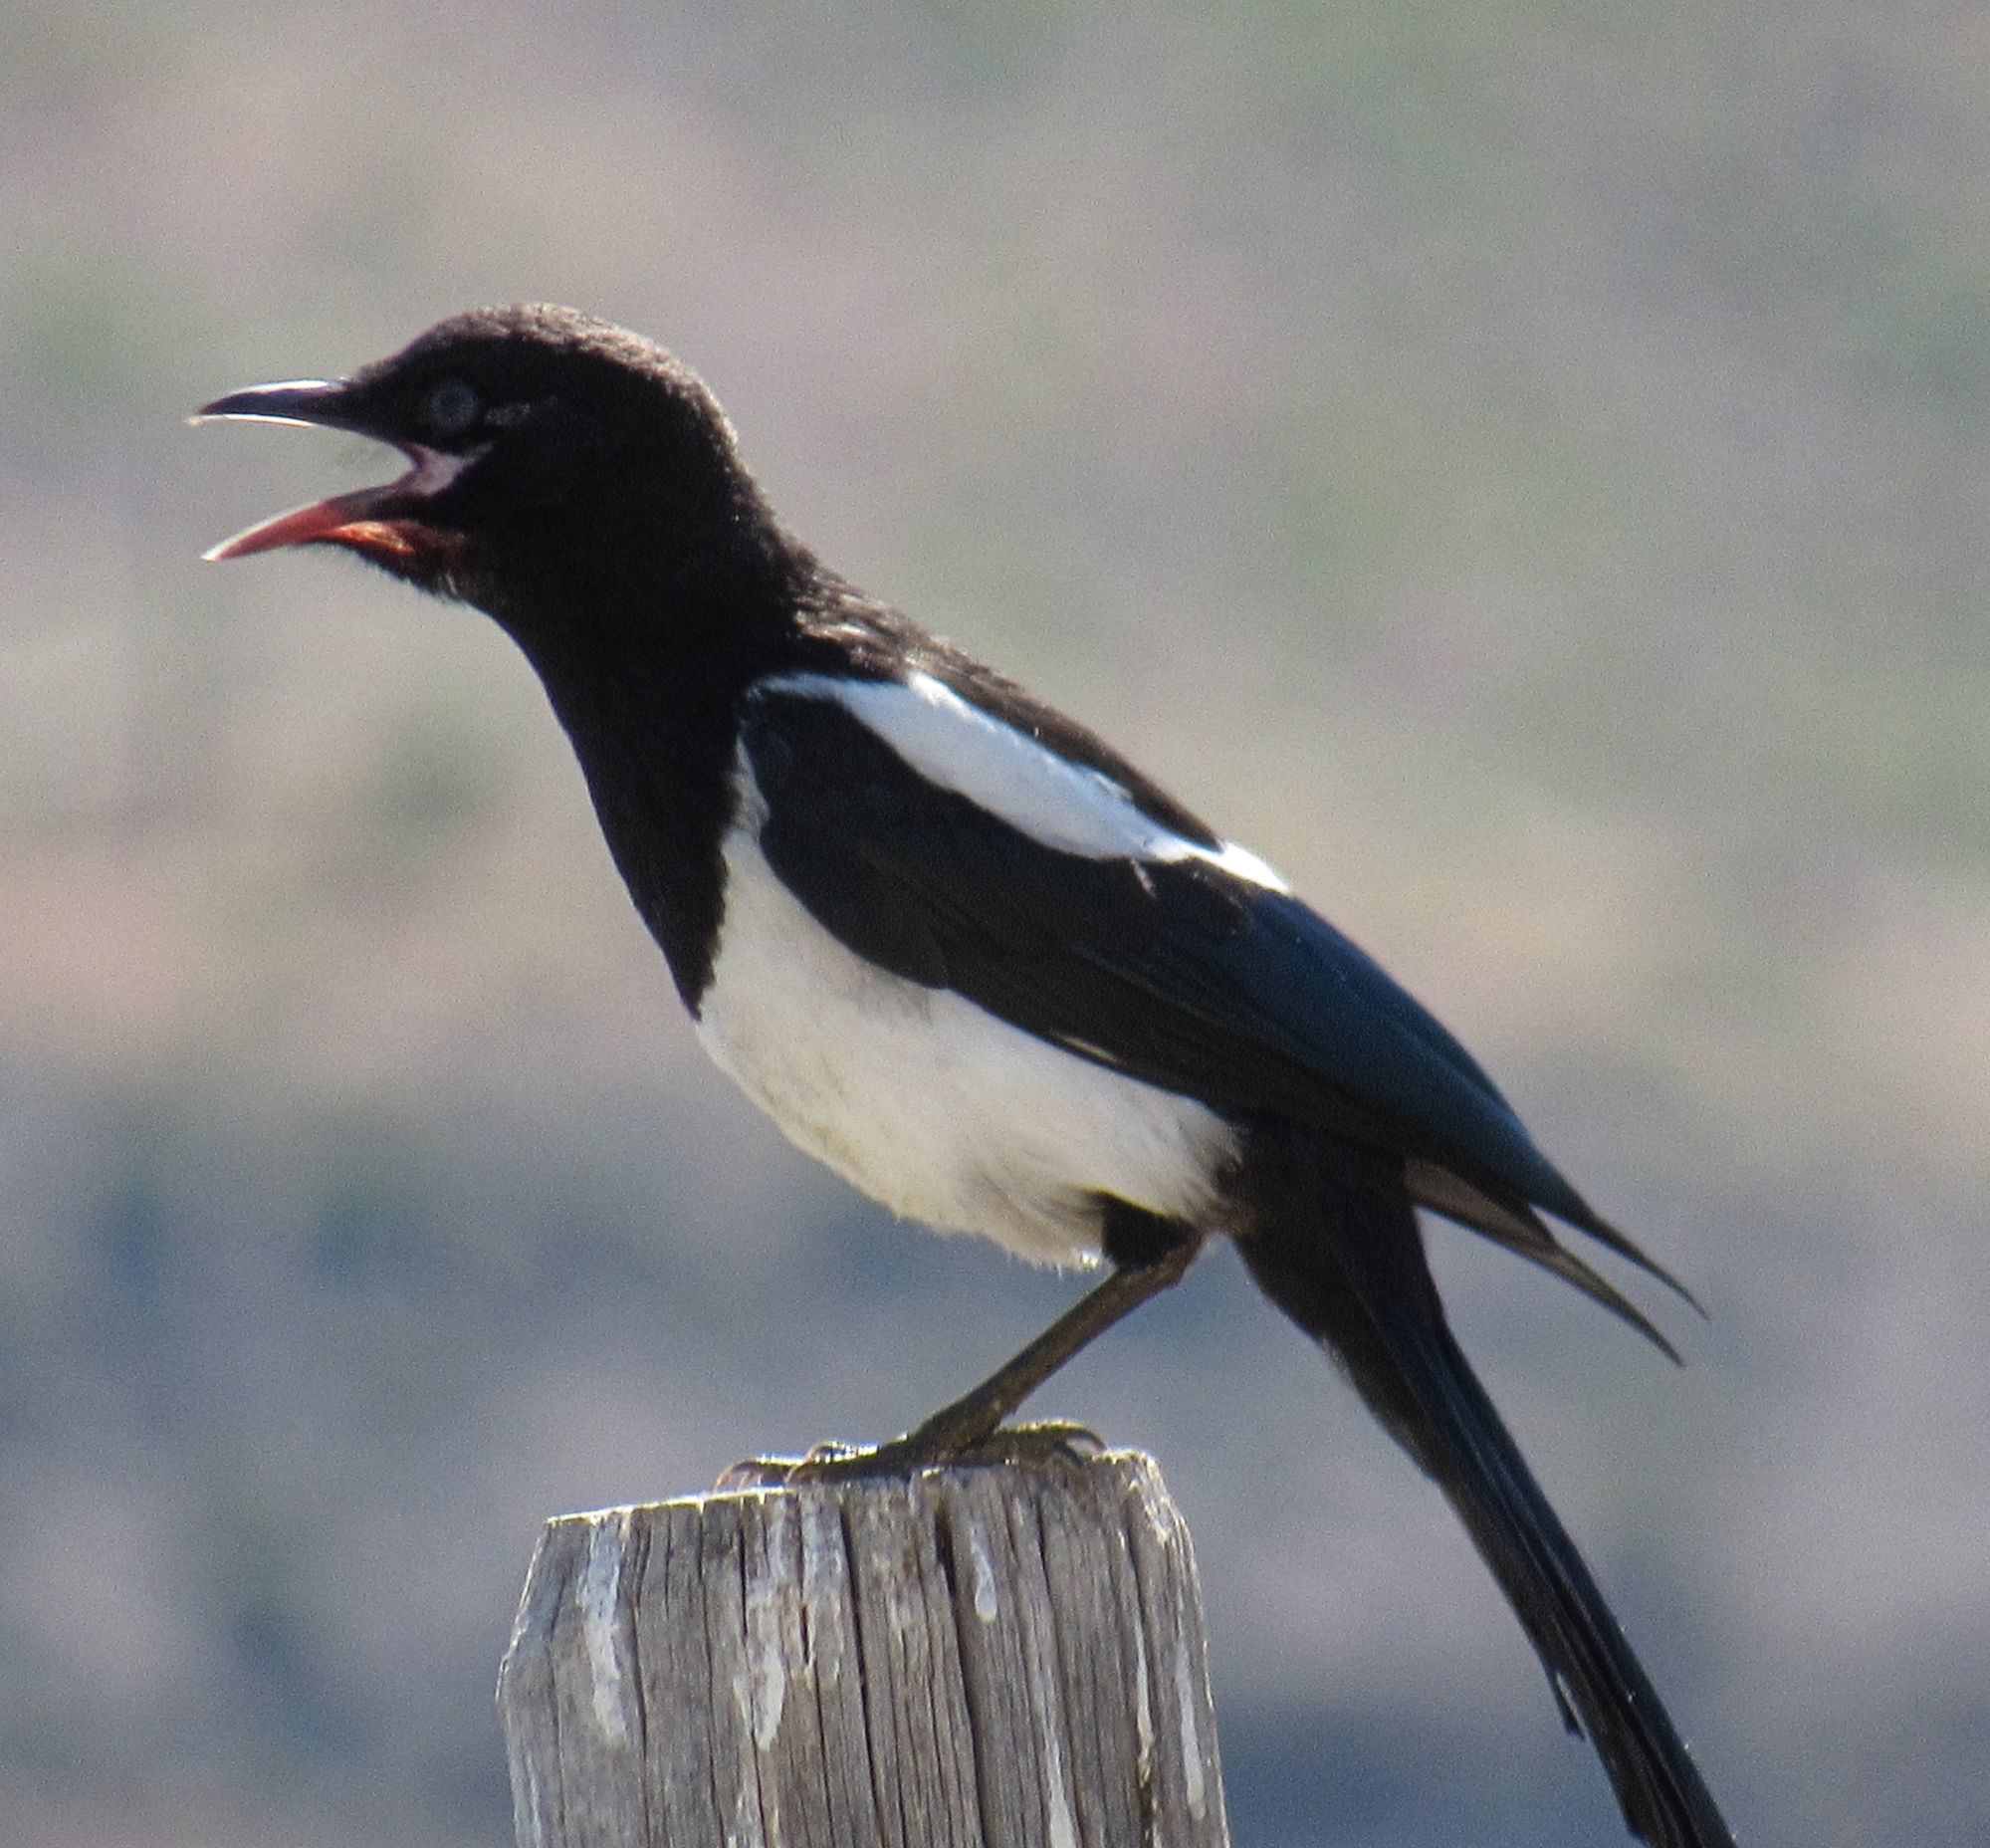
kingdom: Animalia
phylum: Chordata
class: Aves
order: Passeriformes
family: Corvidae
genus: Pica
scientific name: Pica hudsonia
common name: Black-billed magpie
